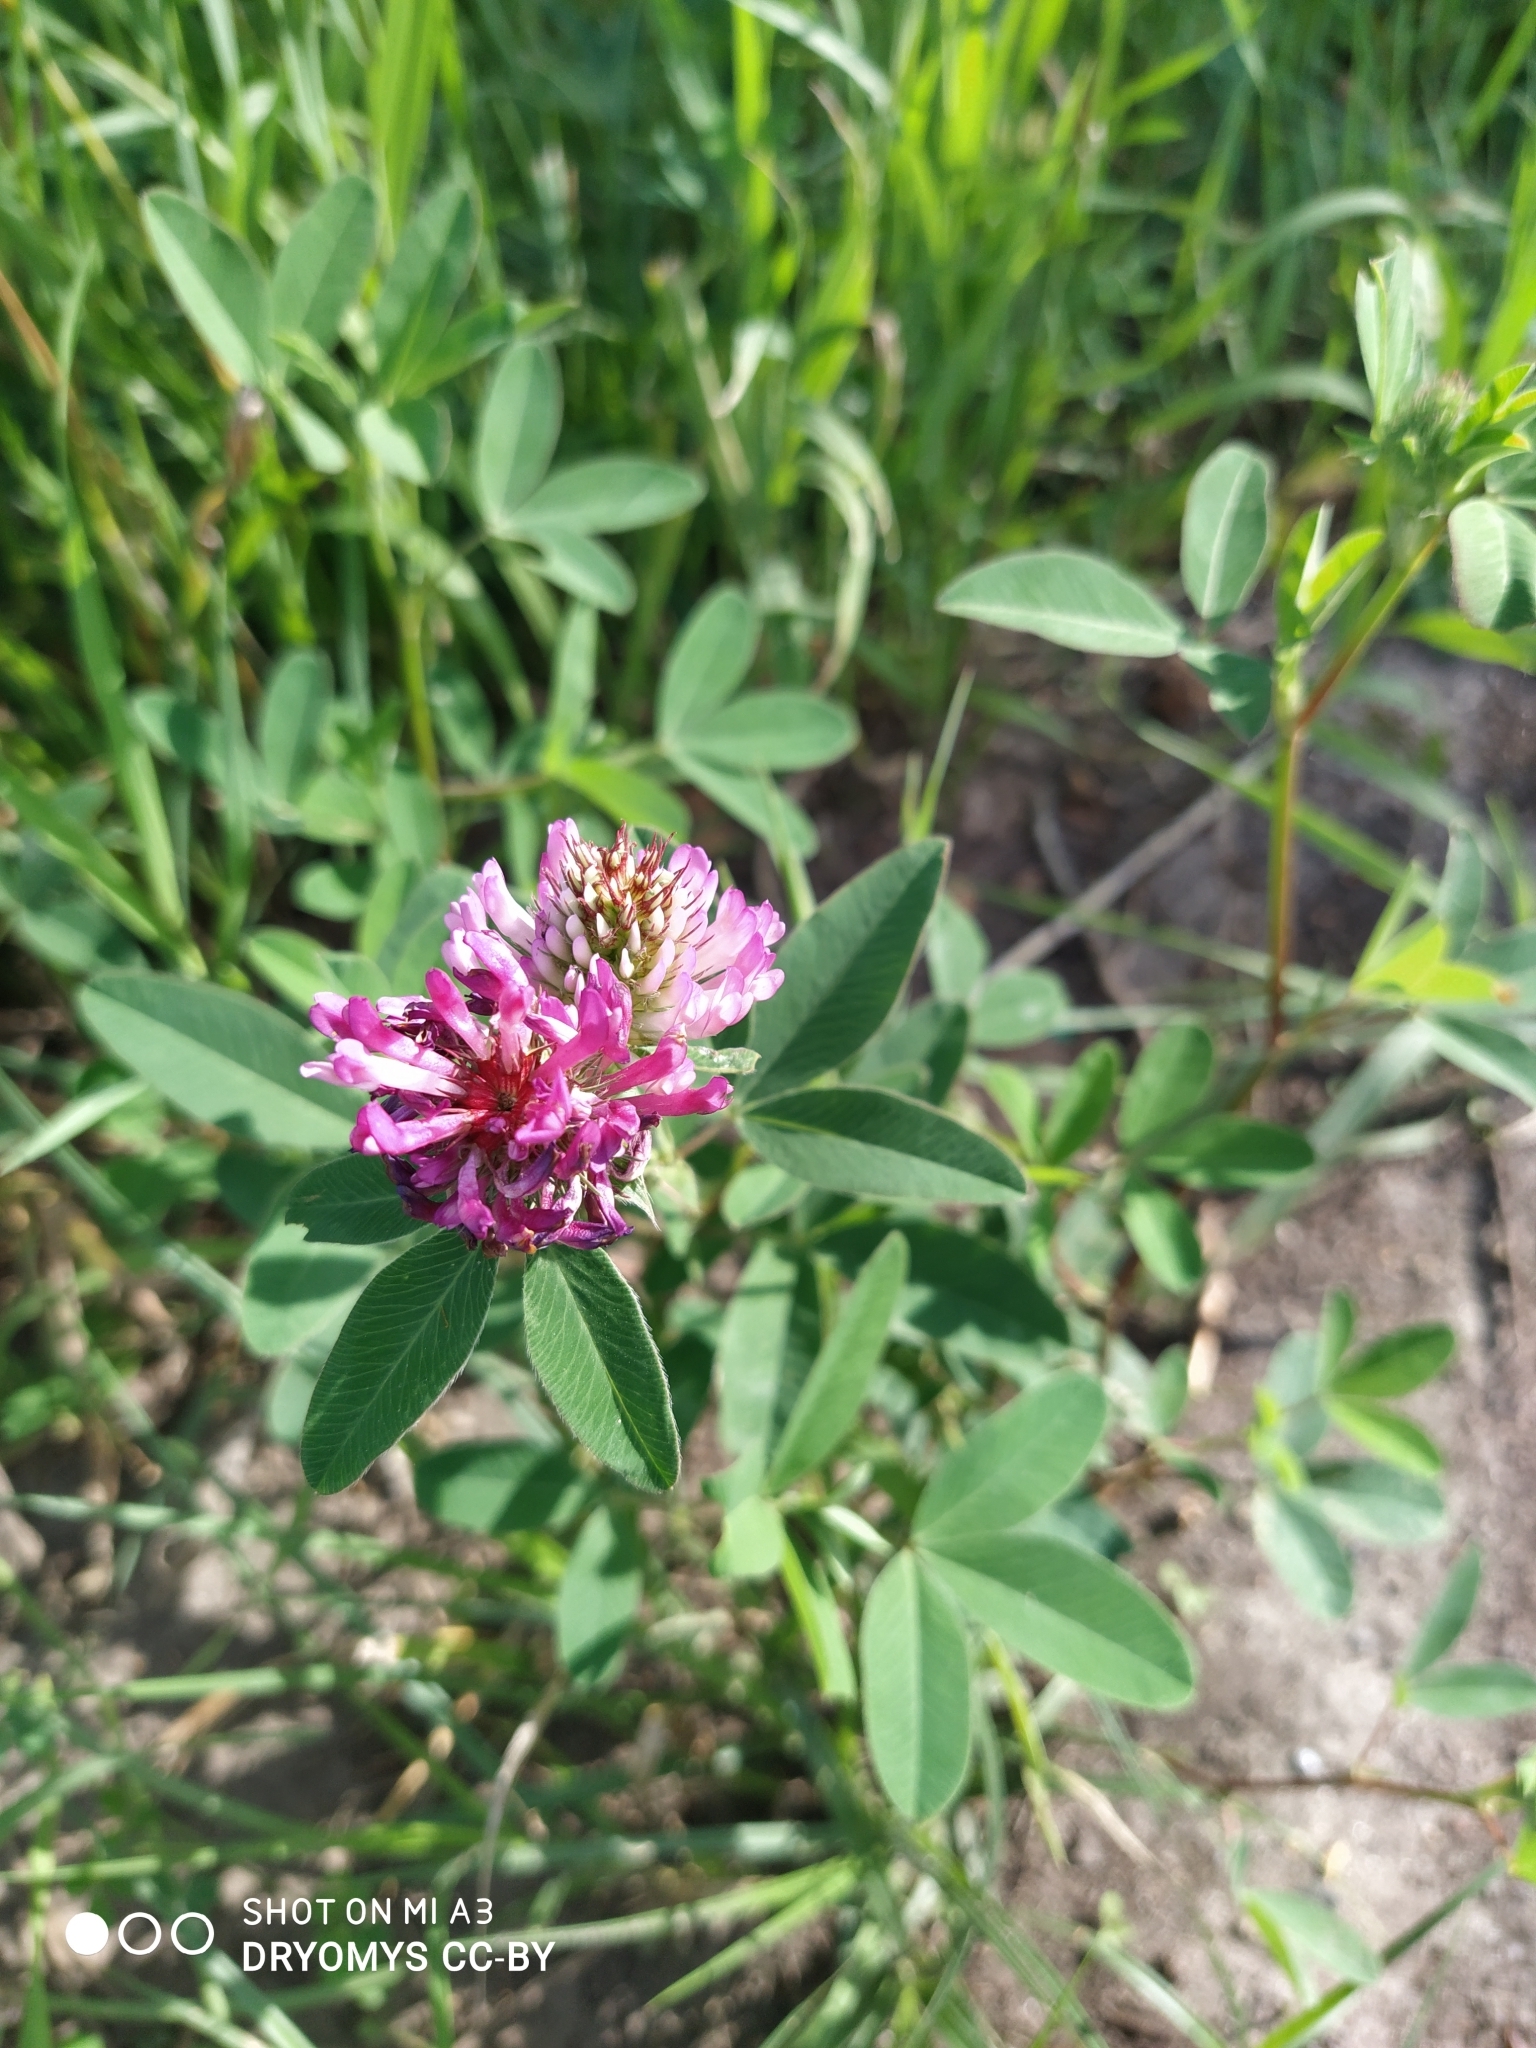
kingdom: Plantae
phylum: Tracheophyta
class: Magnoliopsida
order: Fabales
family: Fabaceae
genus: Trifolium
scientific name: Trifolium medium
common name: Zigzag clover
